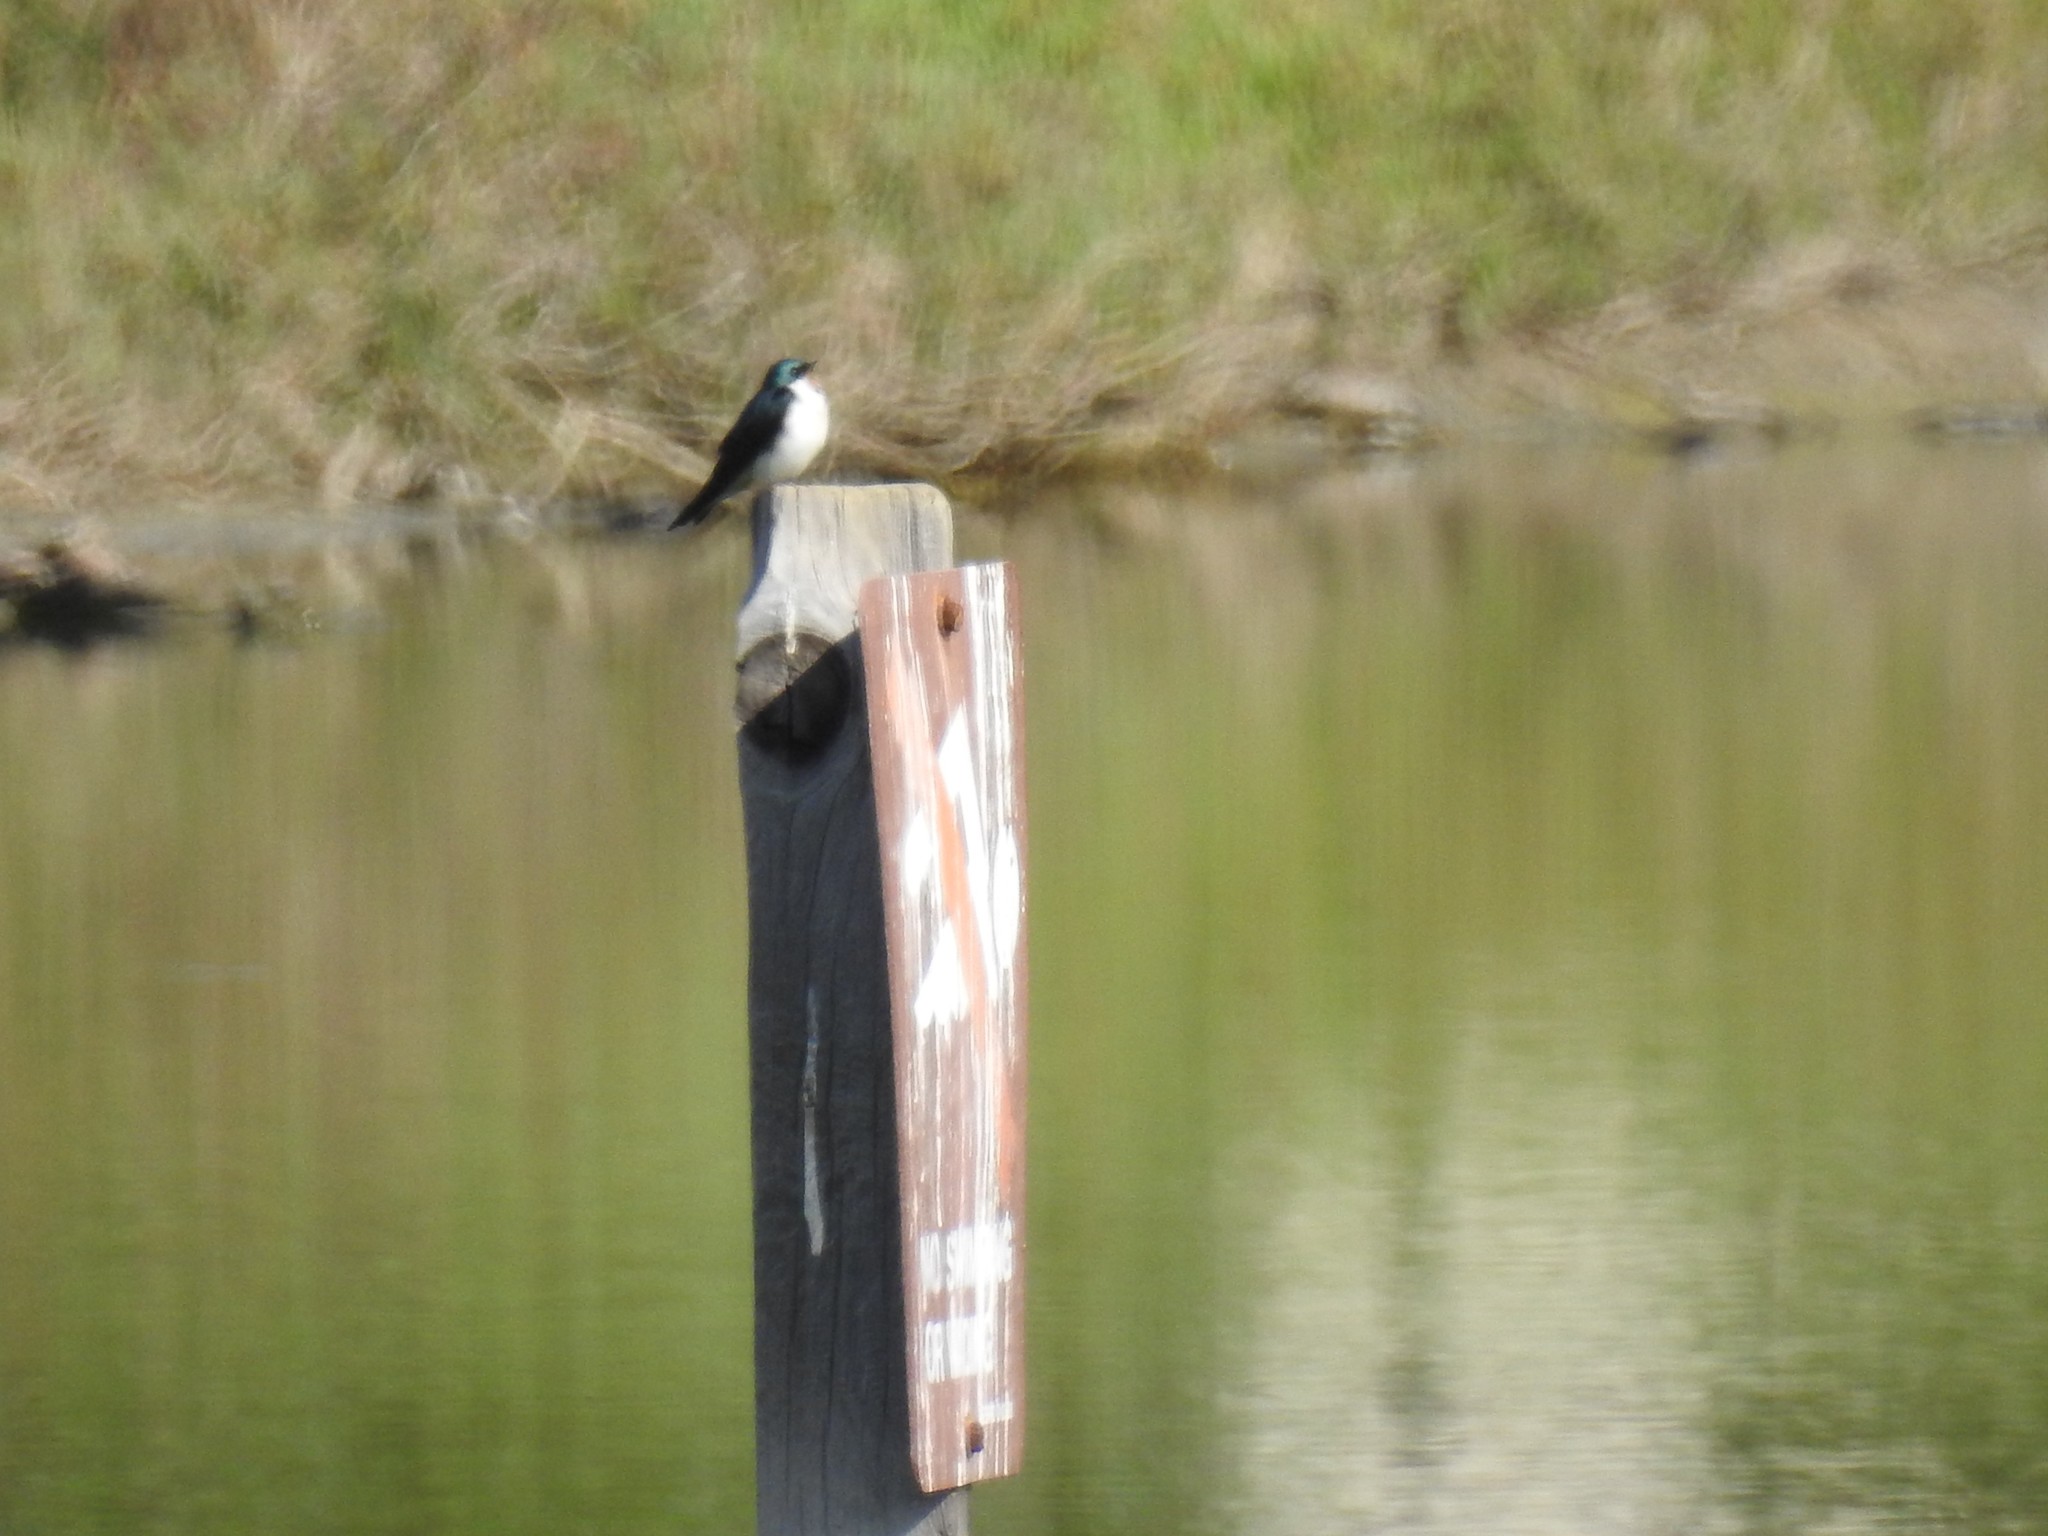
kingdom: Animalia
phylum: Chordata
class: Aves
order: Passeriformes
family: Hirundinidae
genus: Tachycineta
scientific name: Tachycineta bicolor
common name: Tree swallow
